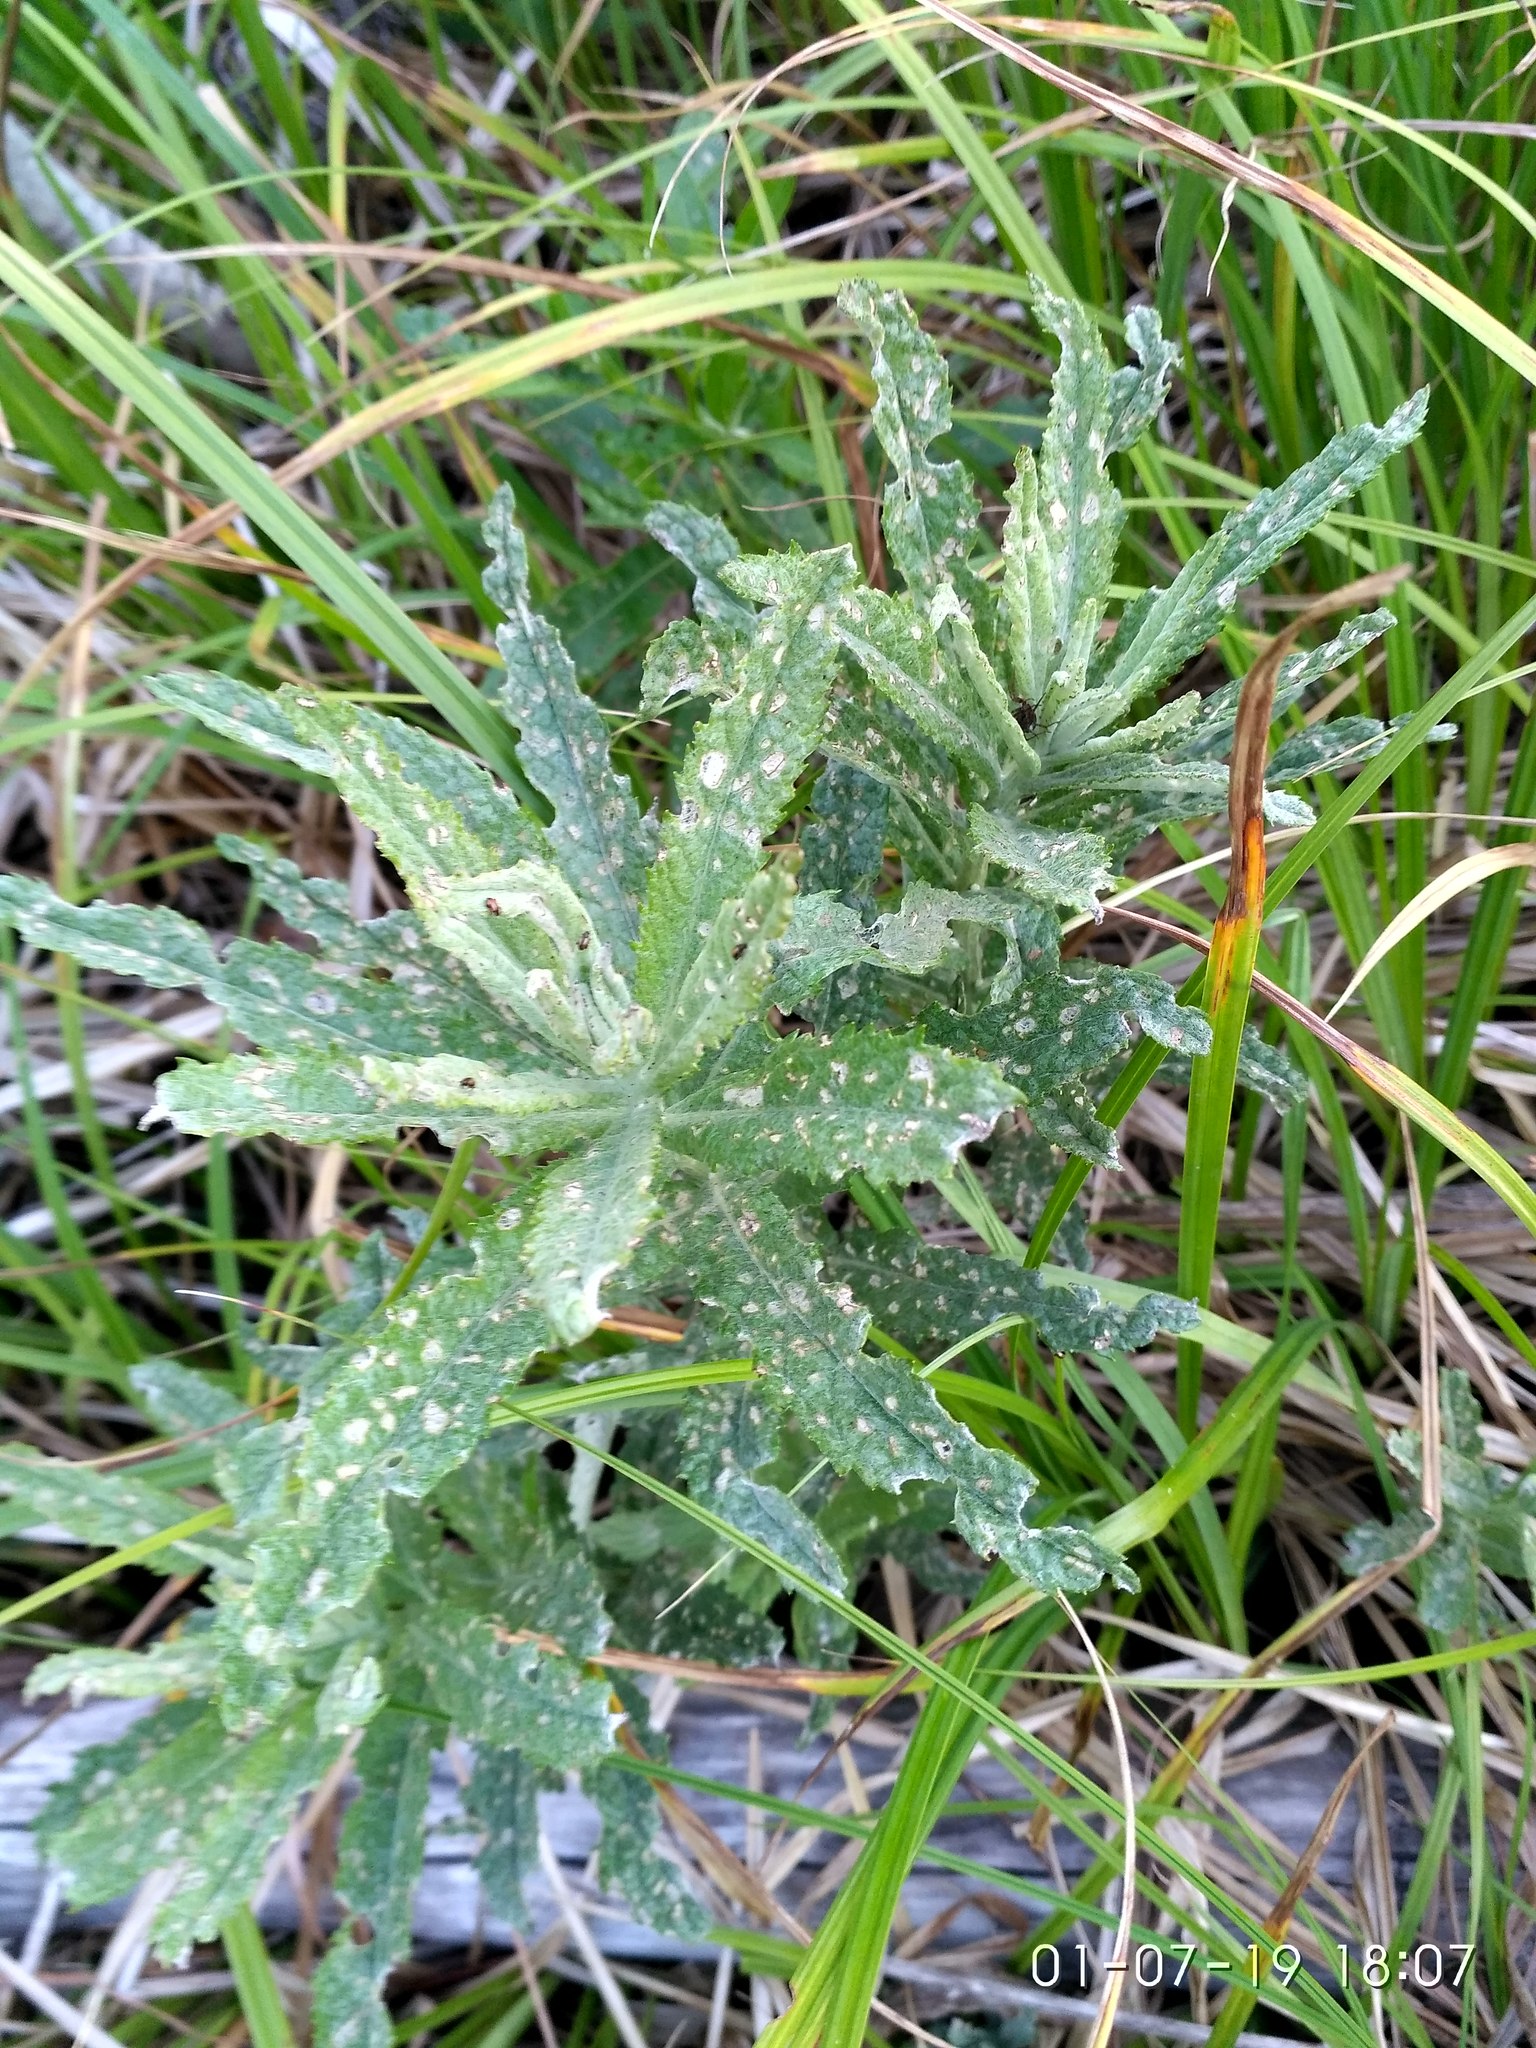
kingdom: Plantae
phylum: Tracheophyta
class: Magnoliopsida
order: Asterales
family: Asteraceae
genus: Jacobaea
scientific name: Jacobaea paludosa
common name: Fen ragwort
